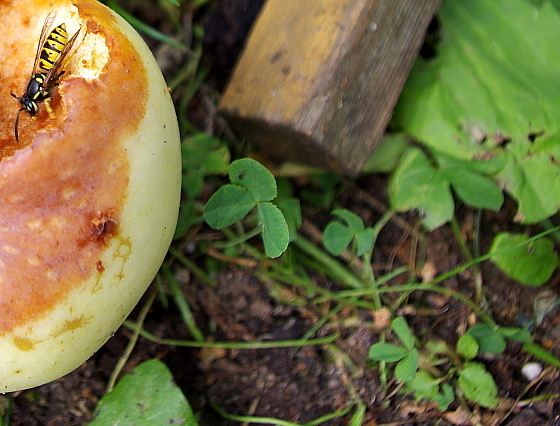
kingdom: Plantae
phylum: Tracheophyta
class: Magnoliopsida
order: Fabales
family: Fabaceae
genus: Trifolium
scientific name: Trifolium repens
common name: White clover
